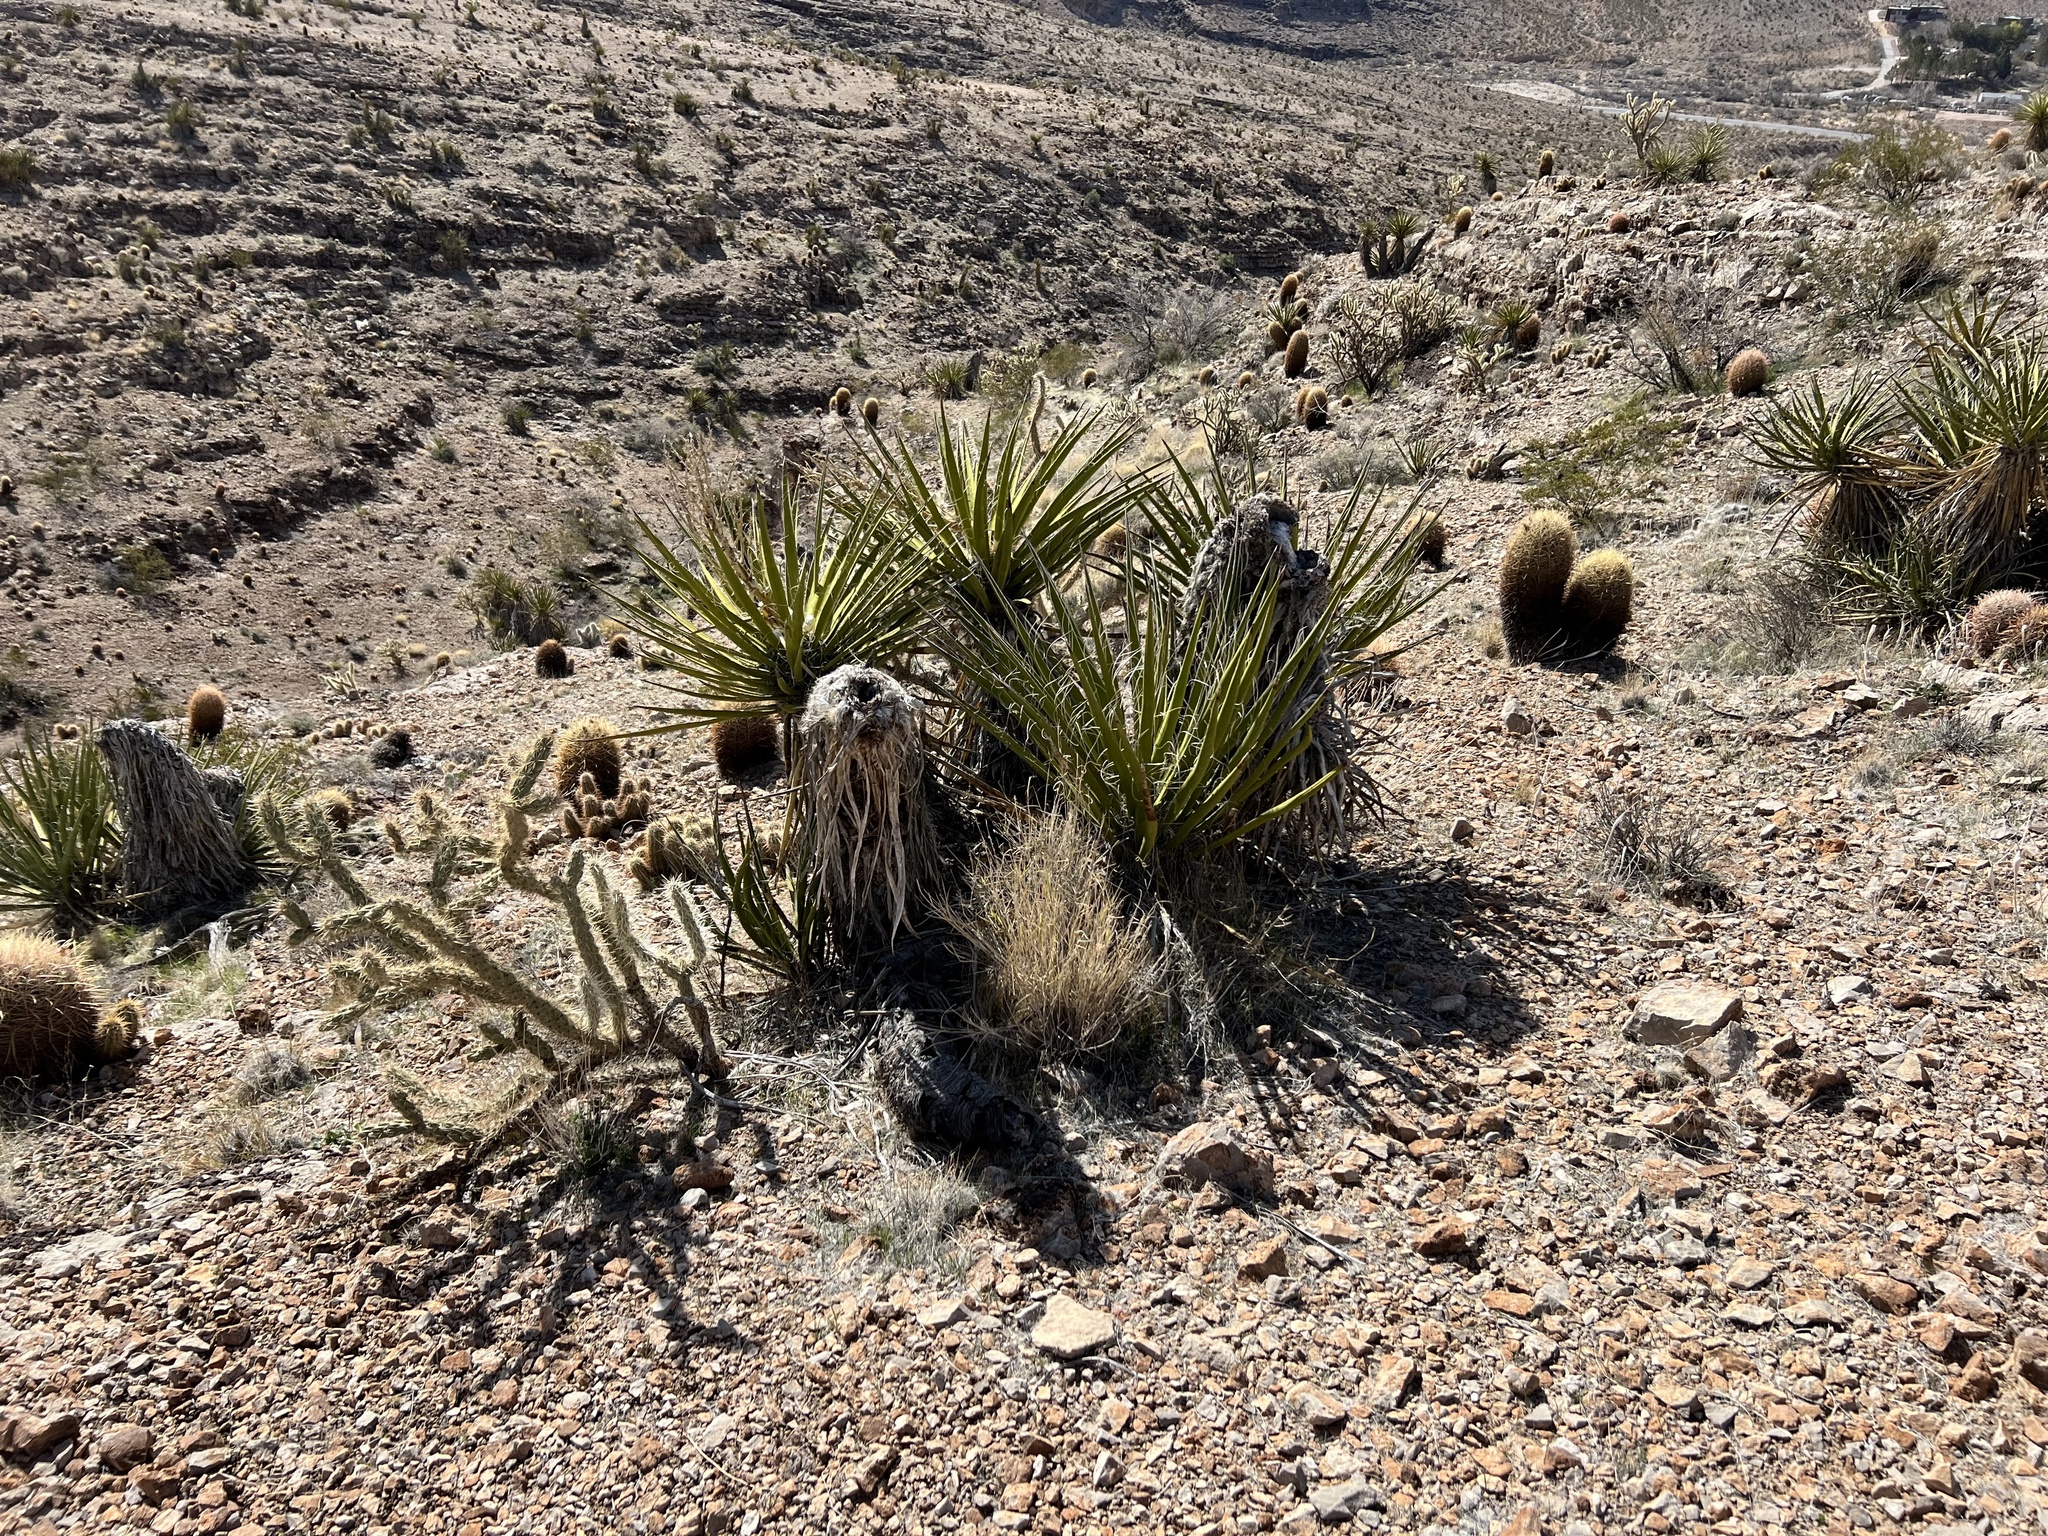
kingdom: Plantae
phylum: Tracheophyta
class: Liliopsida
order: Asparagales
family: Asparagaceae
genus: Yucca
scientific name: Yucca schidigera
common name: Mojave yucca
